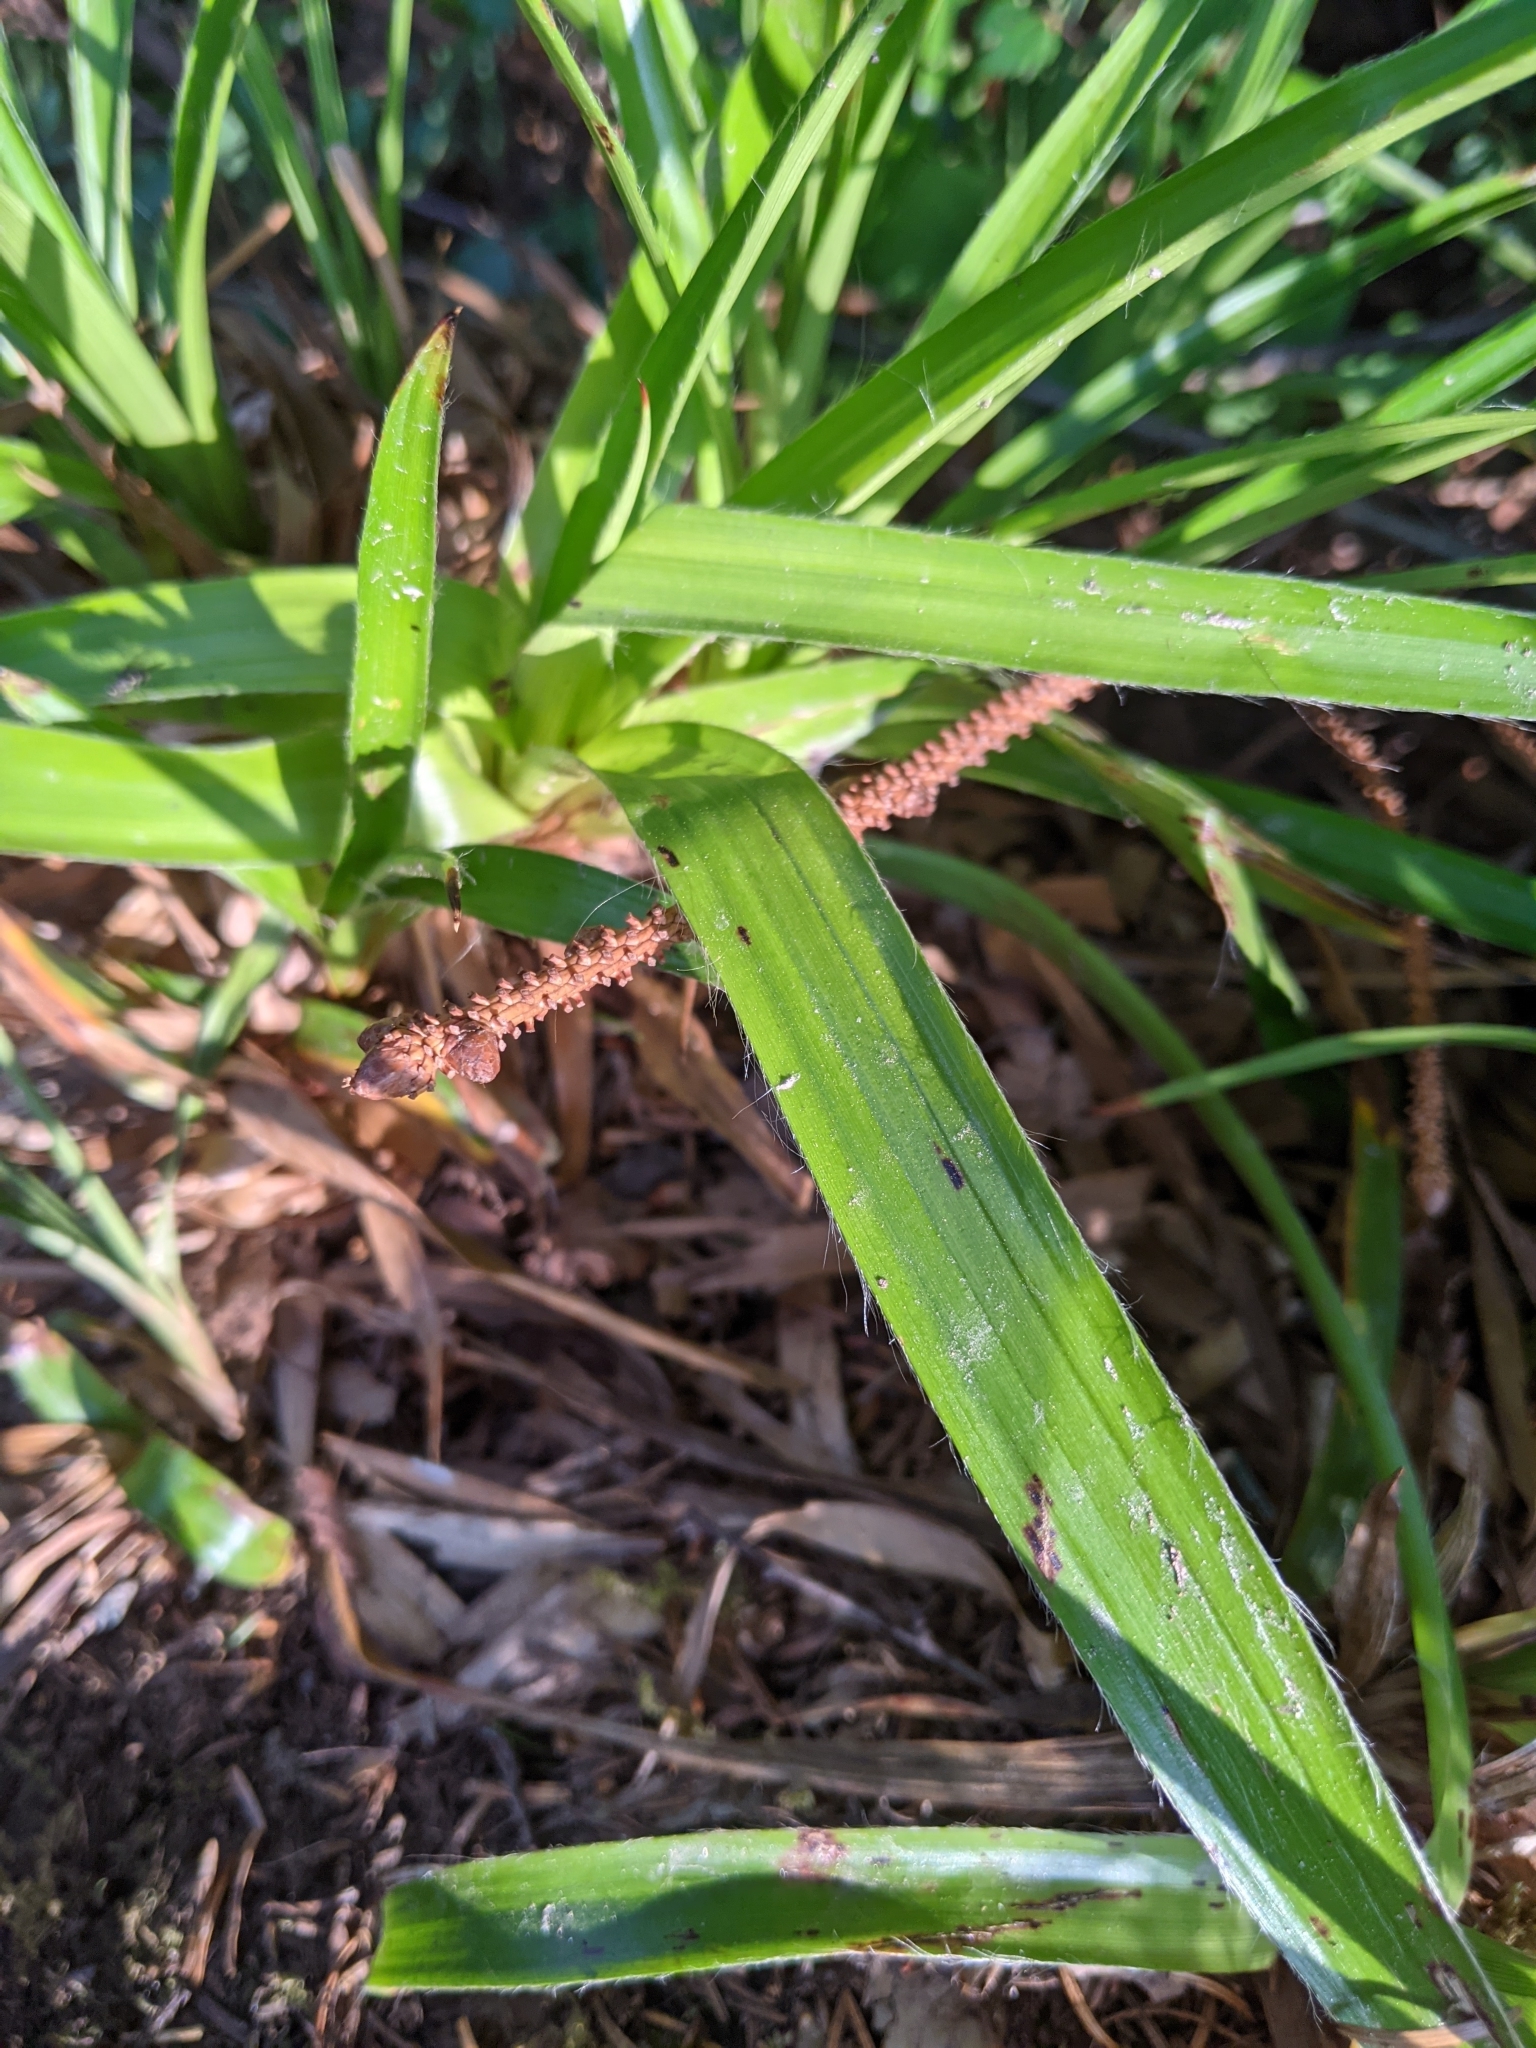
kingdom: Plantae
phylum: Tracheophyta
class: Liliopsida
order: Poales
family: Juncaceae
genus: Luzula
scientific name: Luzula sylvatica
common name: Great wood-rush
